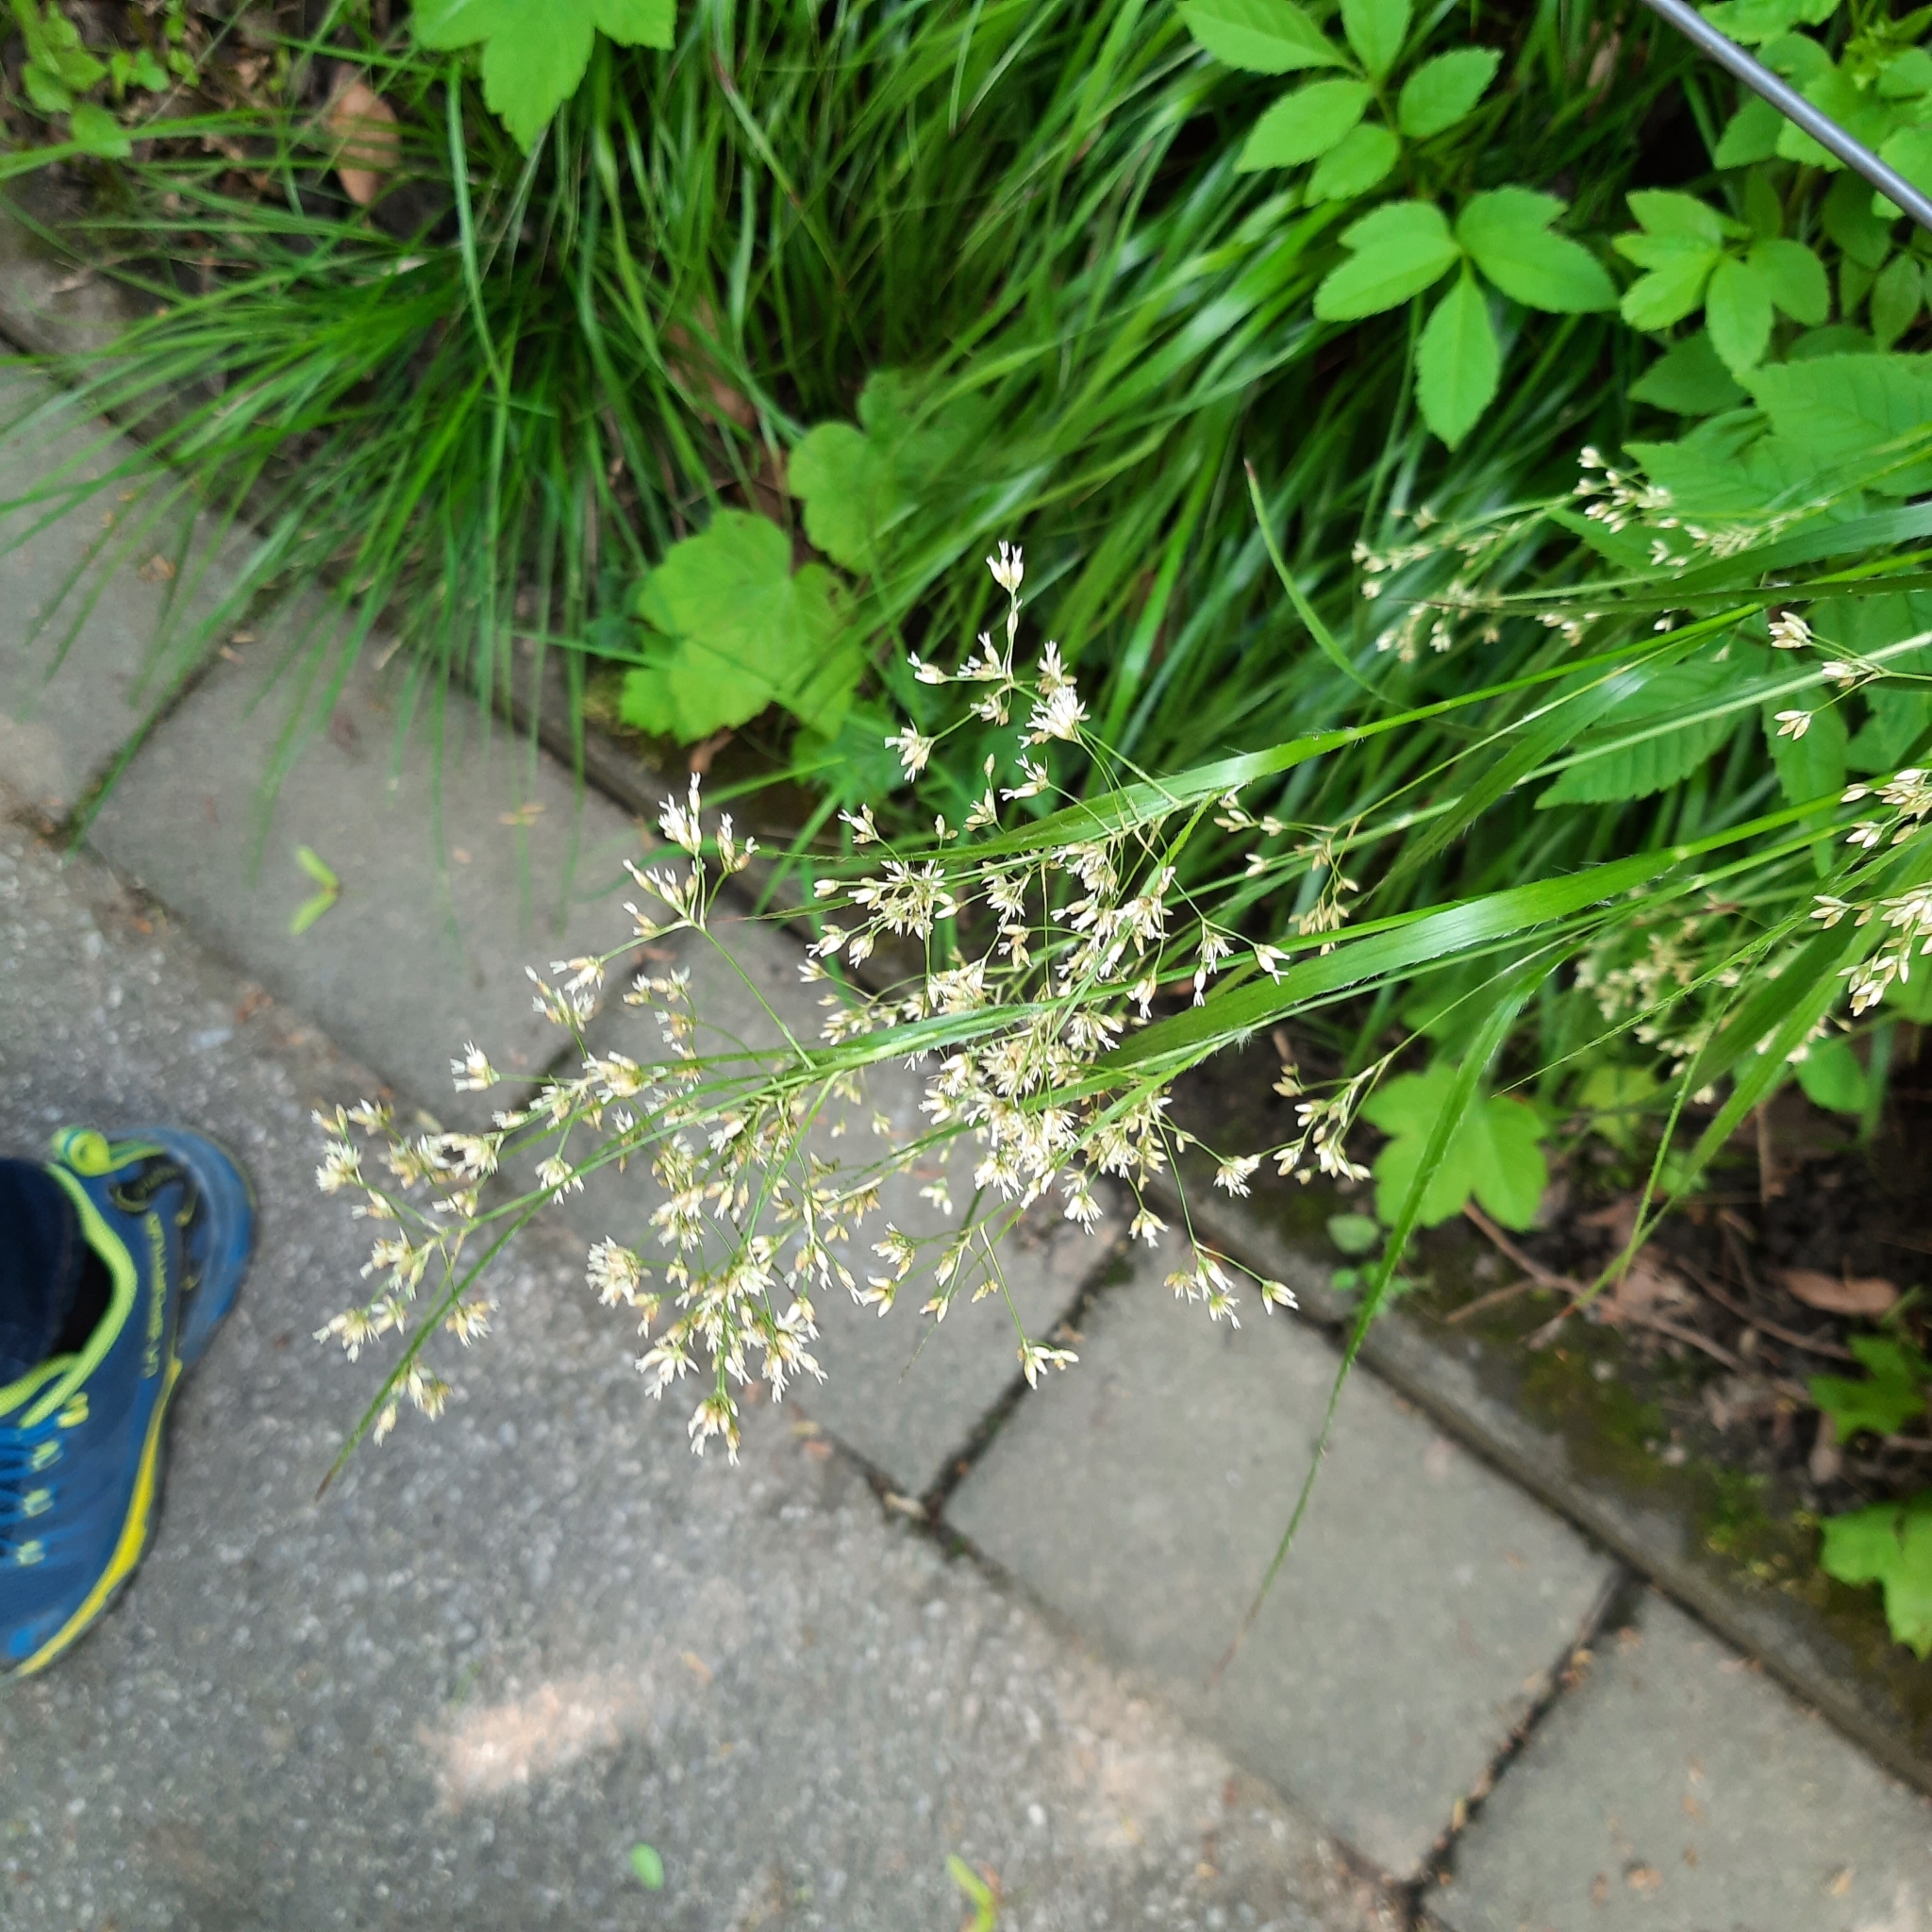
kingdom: Plantae
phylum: Tracheophyta
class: Liliopsida
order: Poales
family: Juncaceae
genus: Luzula
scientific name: Luzula luzuloides
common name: White wood-rush
